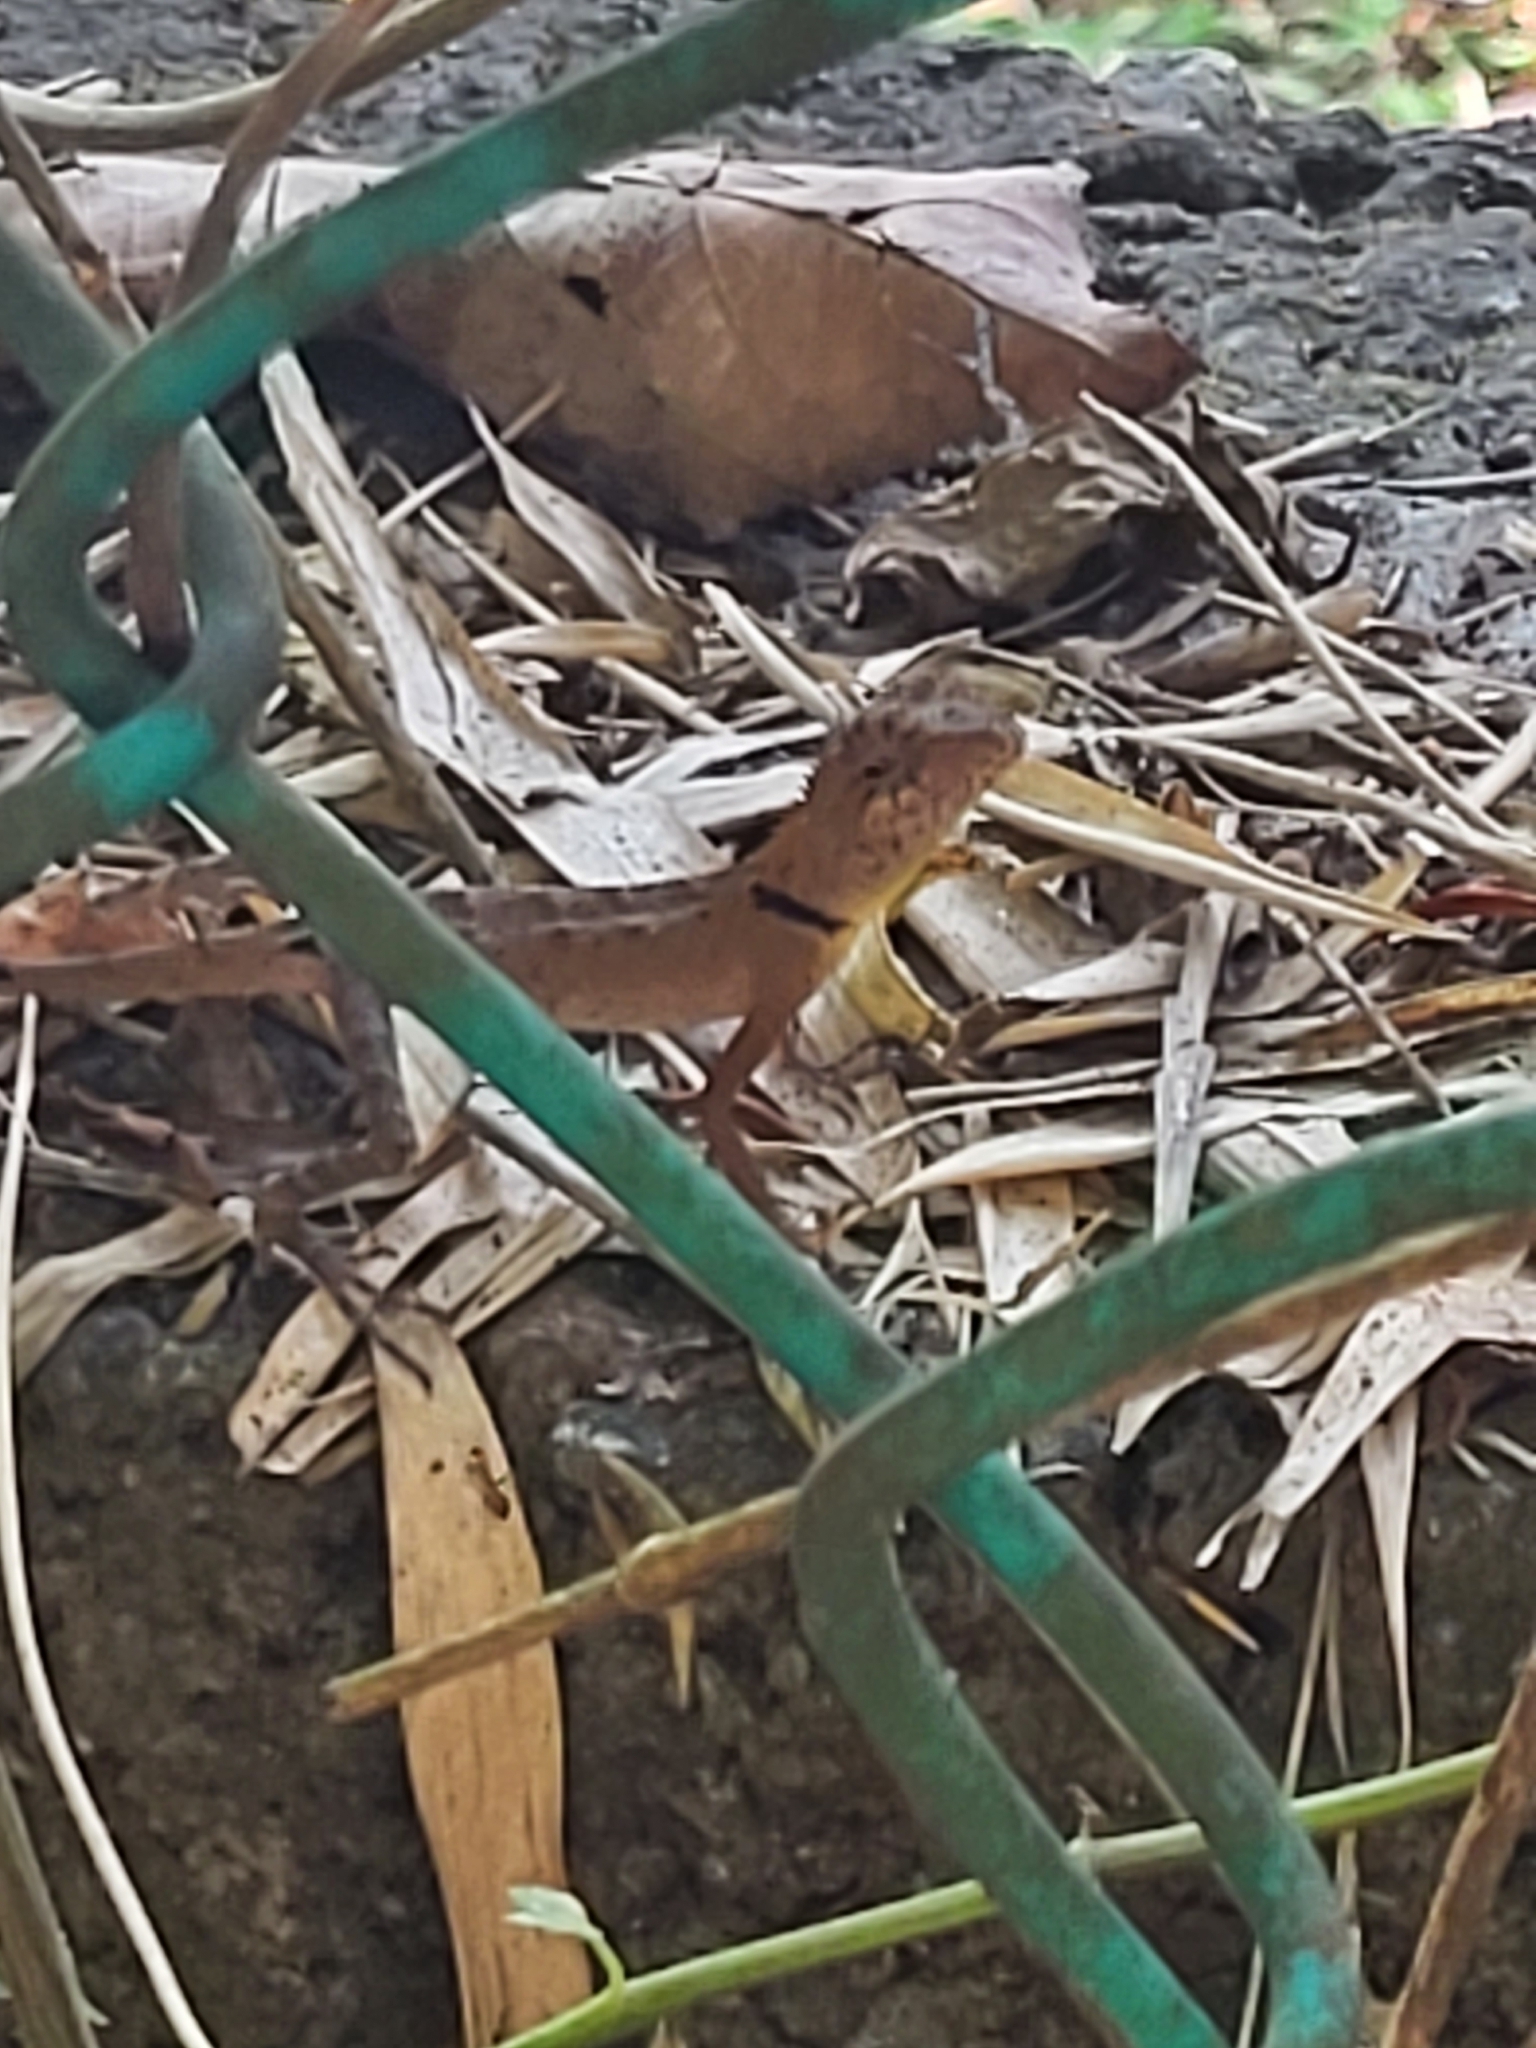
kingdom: Animalia
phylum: Chordata
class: Squamata
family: Agamidae
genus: Monilesaurus
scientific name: Monilesaurus rouxii
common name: Roux's forest lizard
